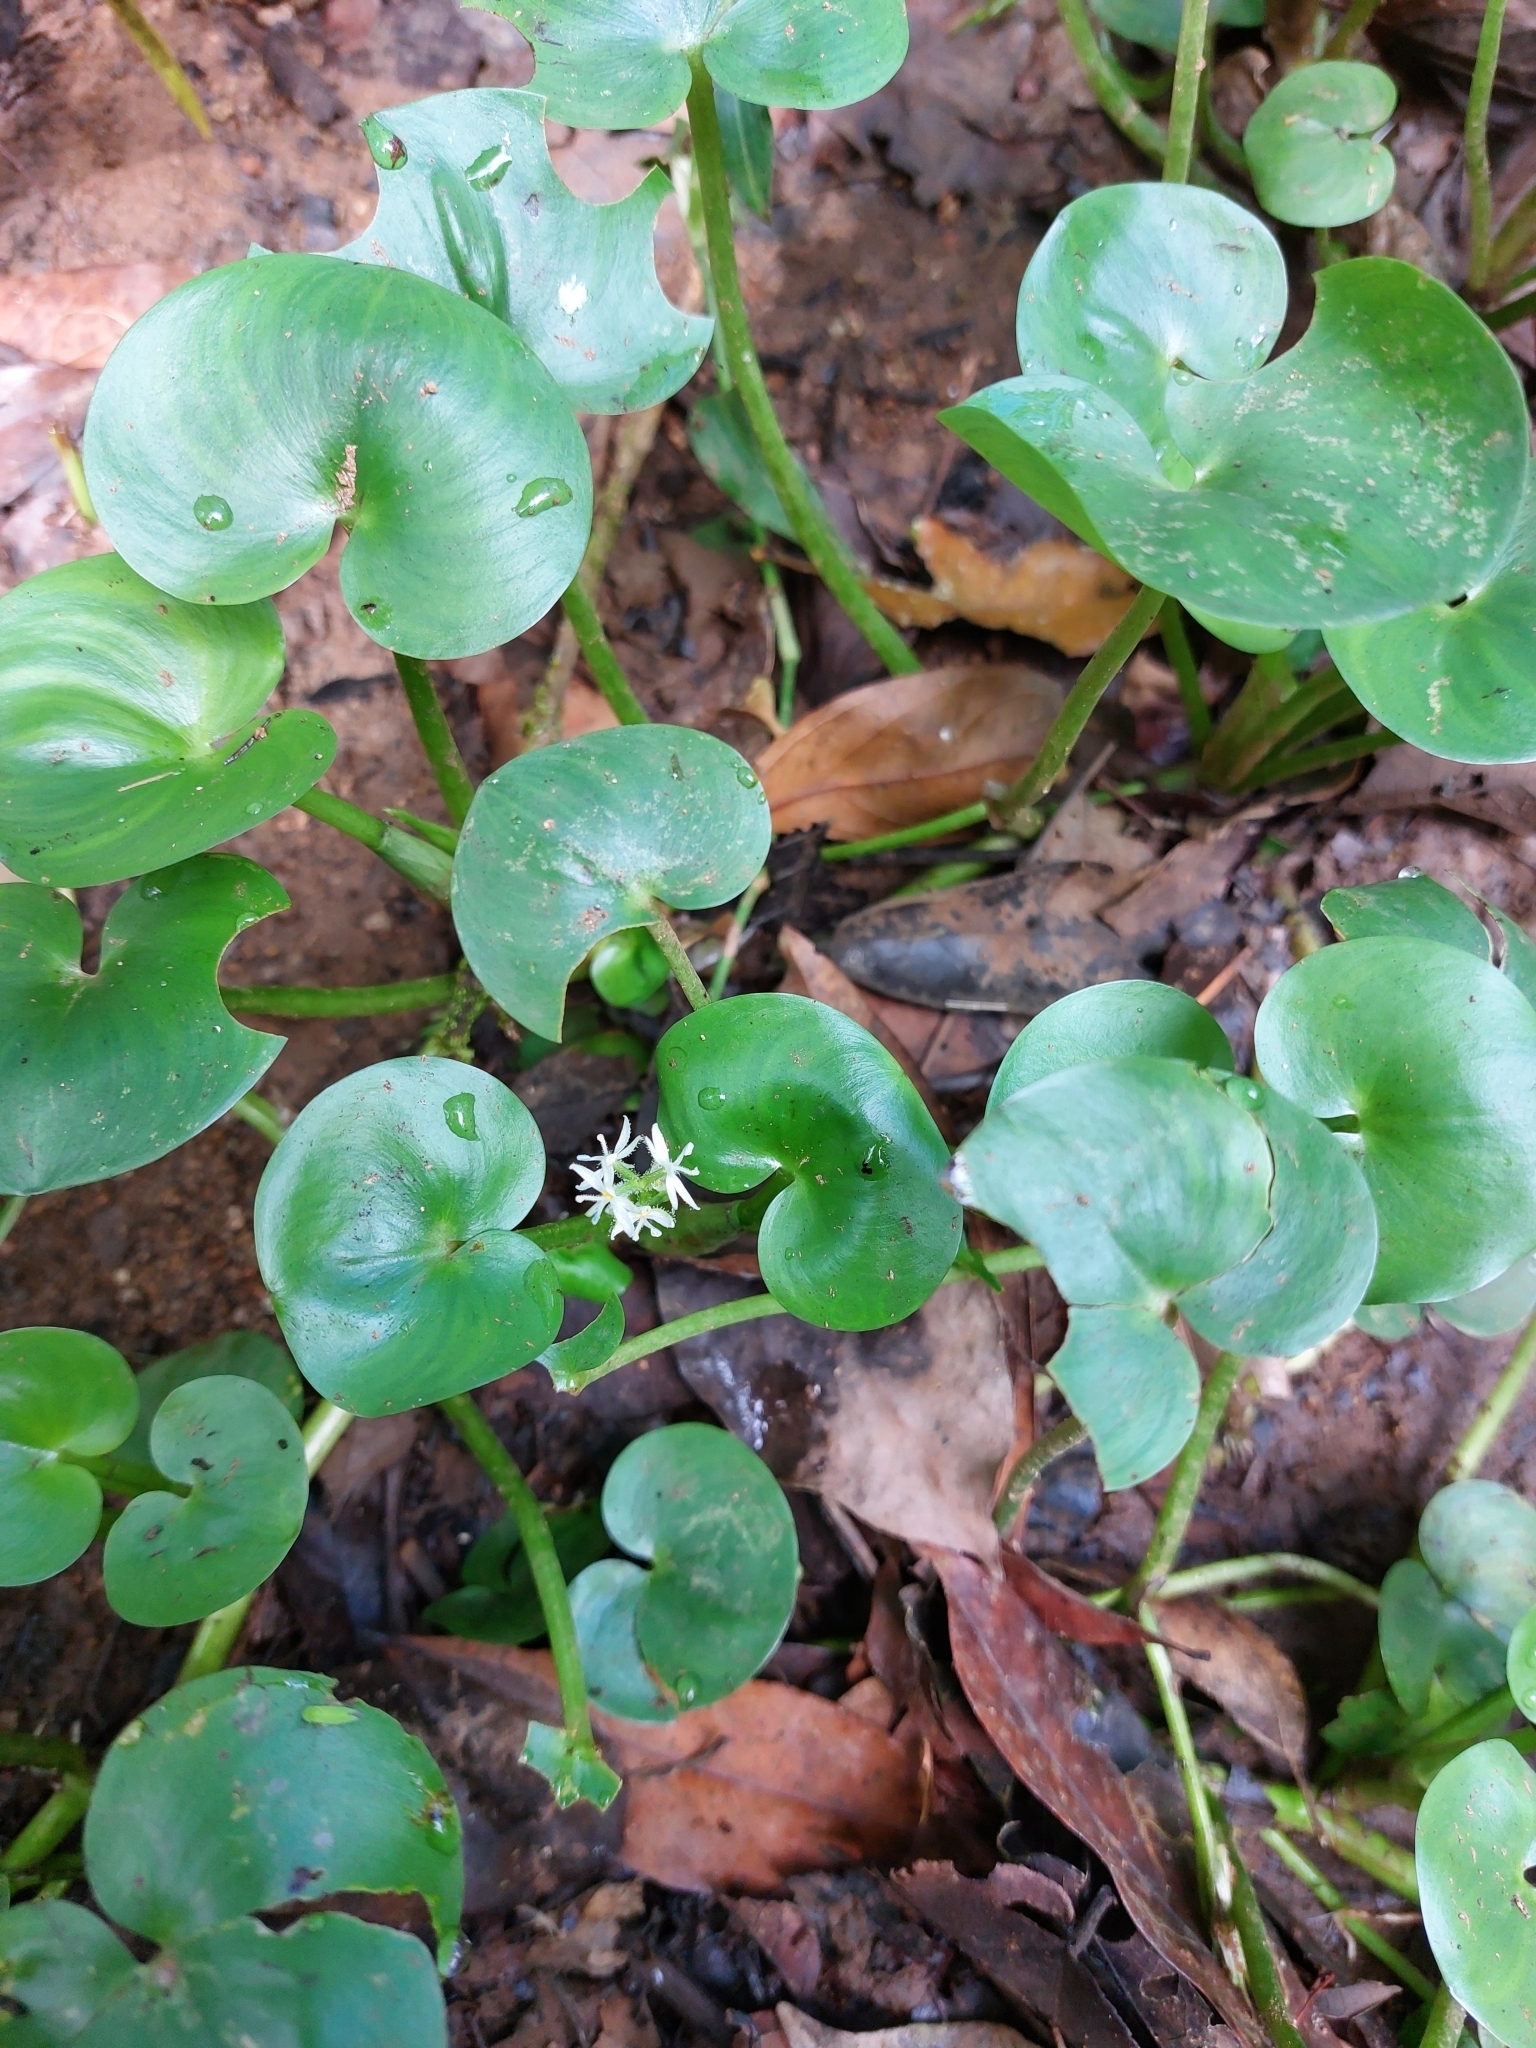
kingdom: Plantae
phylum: Tracheophyta
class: Liliopsida
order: Commelinales
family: Pontederiaceae
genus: Heteranthera
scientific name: Heteranthera reniformis
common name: Kidneyleaf mudplantain
